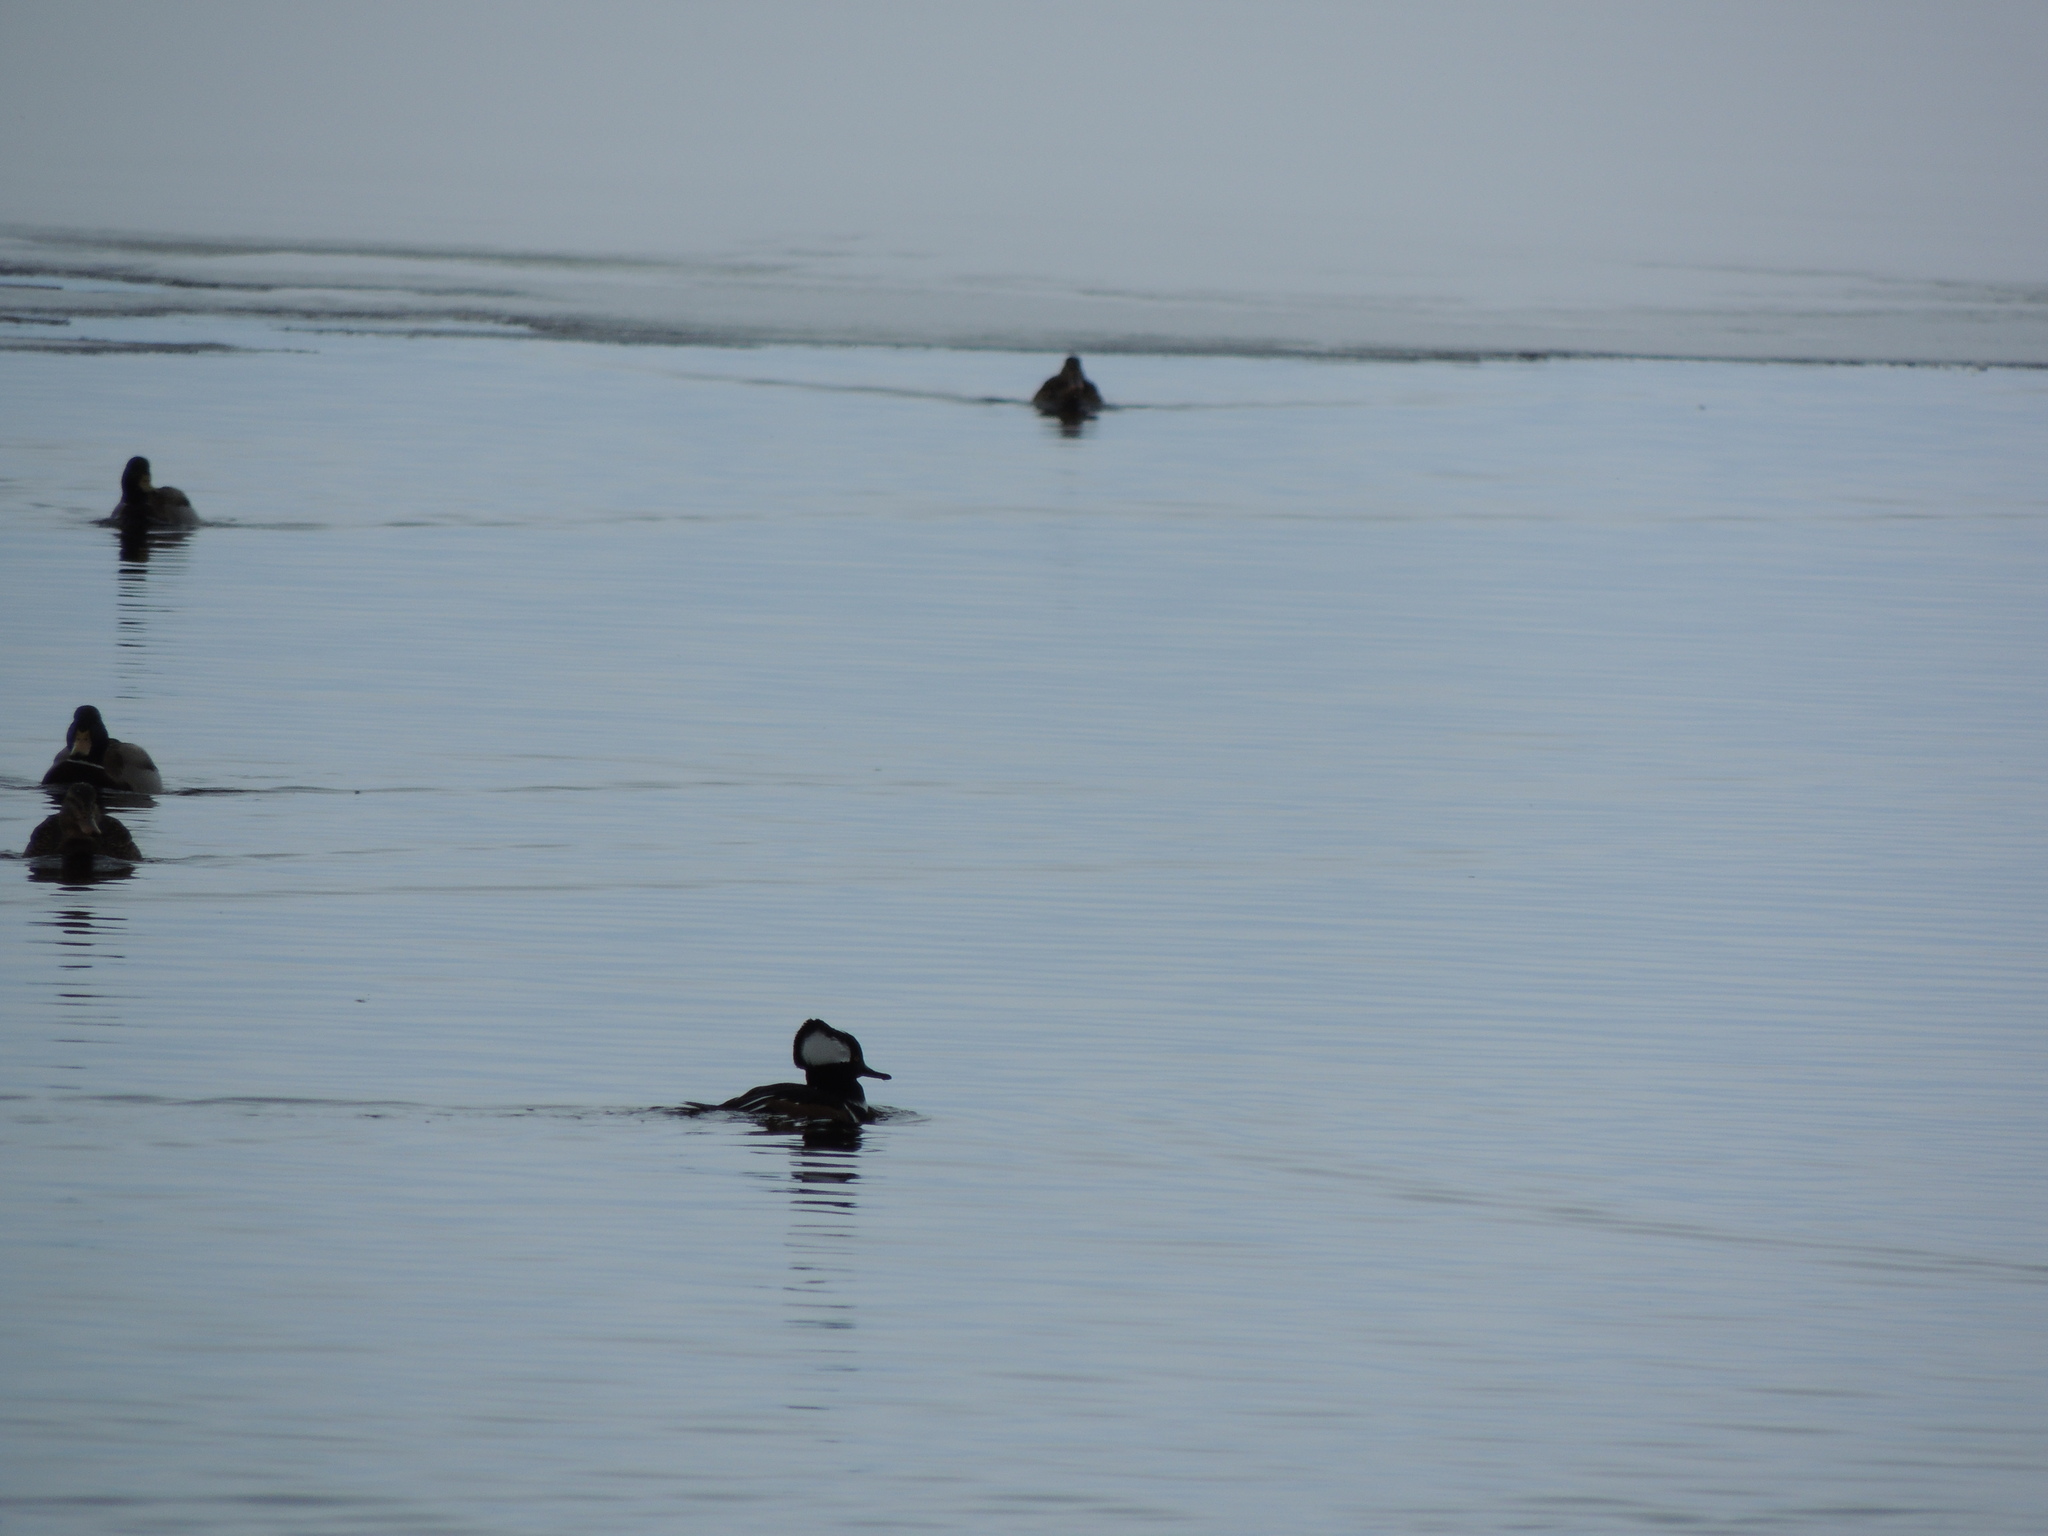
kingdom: Animalia
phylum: Chordata
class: Aves
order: Anseriformes
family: Anatidae
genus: Lophodytes
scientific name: Lophodytes cucullatus
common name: Hooded merganser
